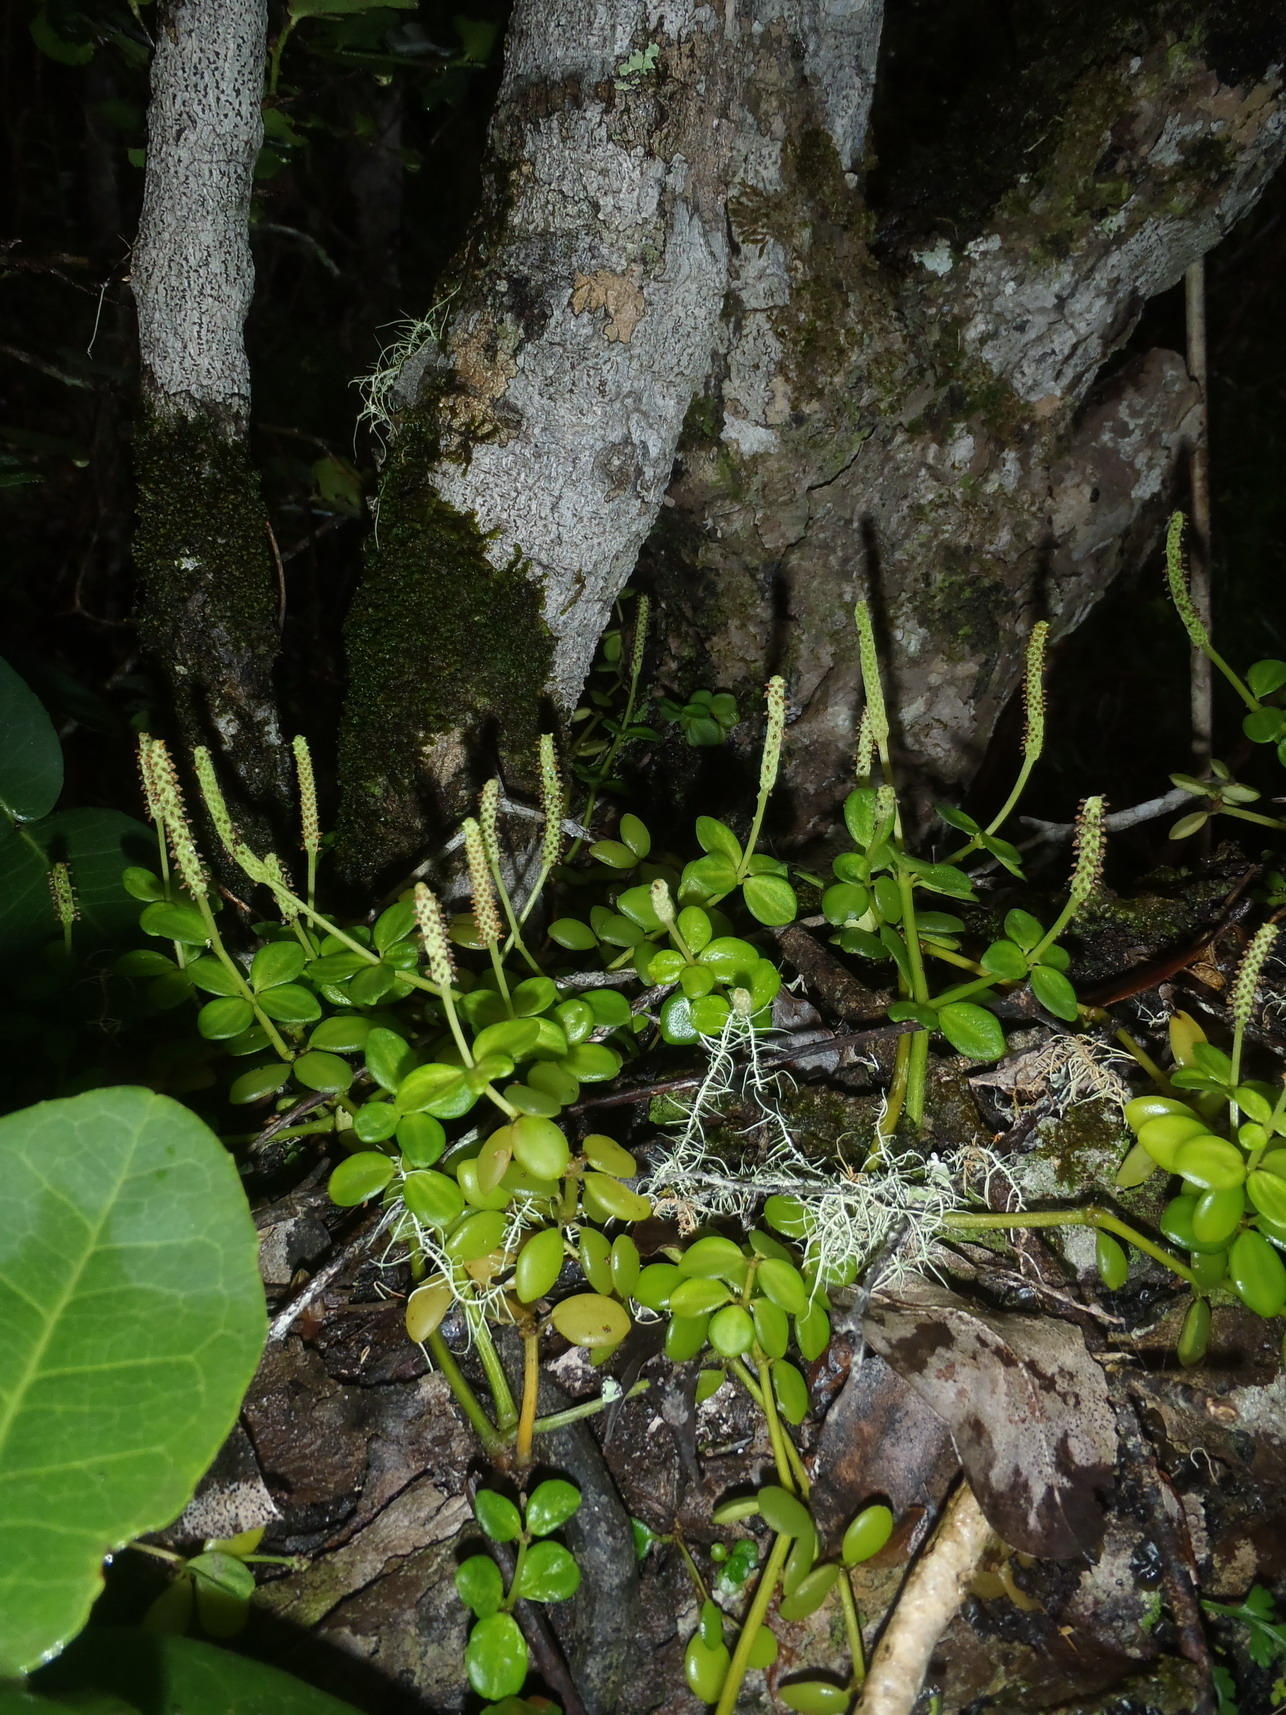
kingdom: Plantae
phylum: Tracheophyta
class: Magnoliopsida
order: Piperales
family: Piperaceae
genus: Peperomia
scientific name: Peperomia tetraphylla
